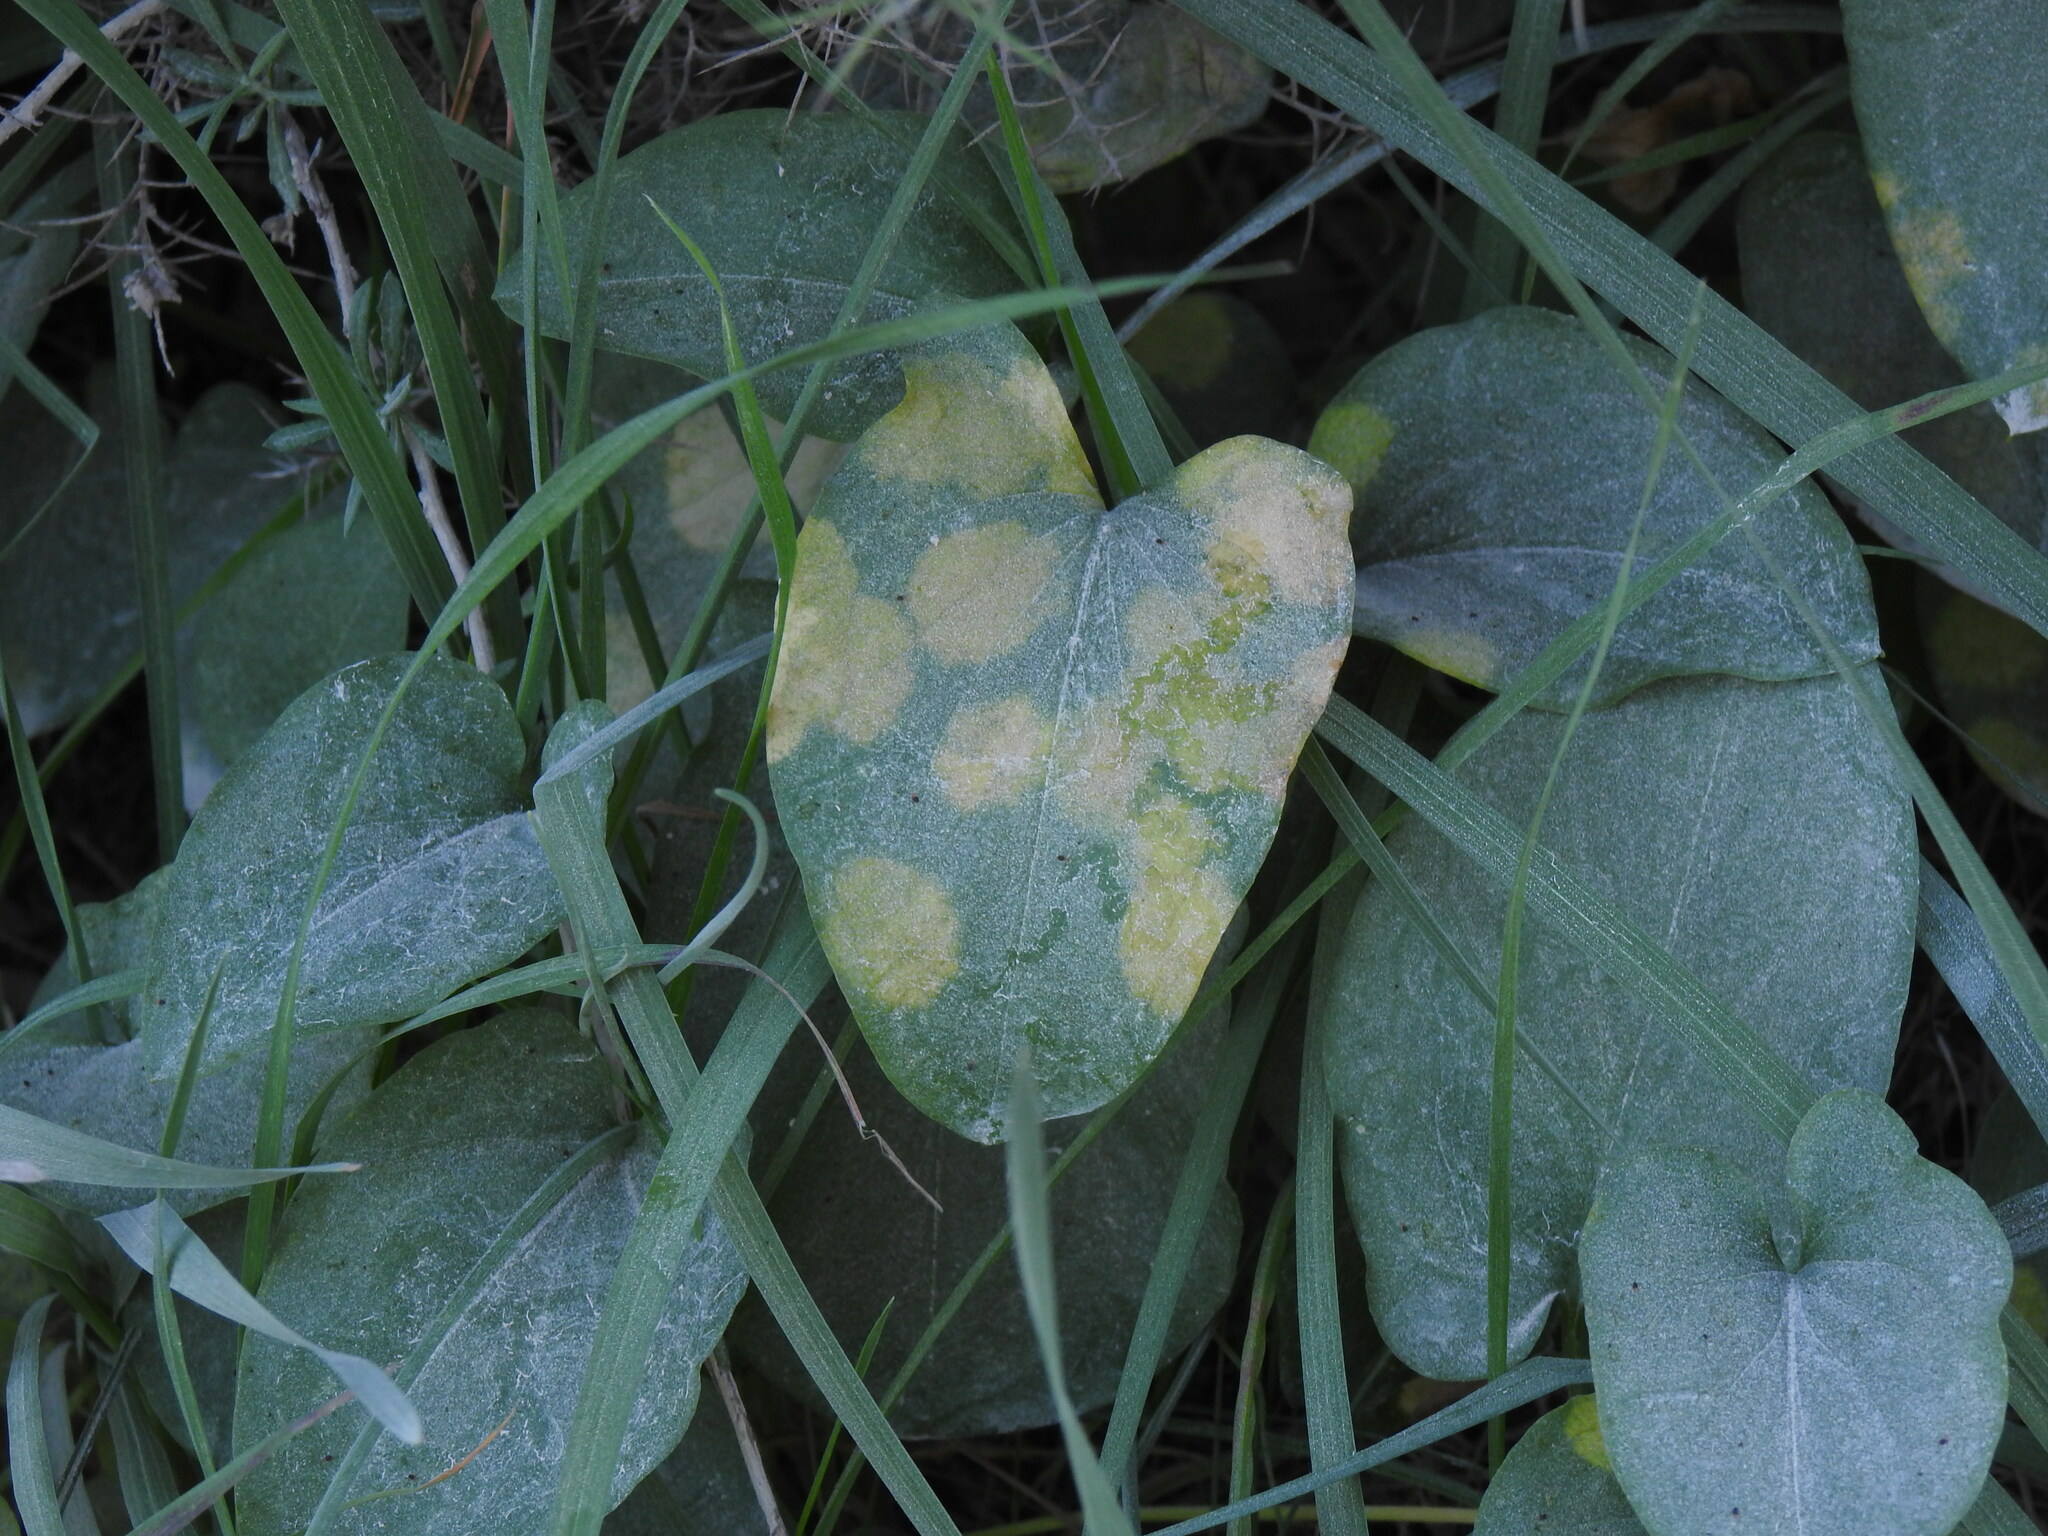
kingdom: Chromista
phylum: Ochrophyta
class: Xanthophyceae
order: Phyllosiphonales
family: Phyllosiphonaceae
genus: Phyllosiphon
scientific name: Phyllosiphon arisari
